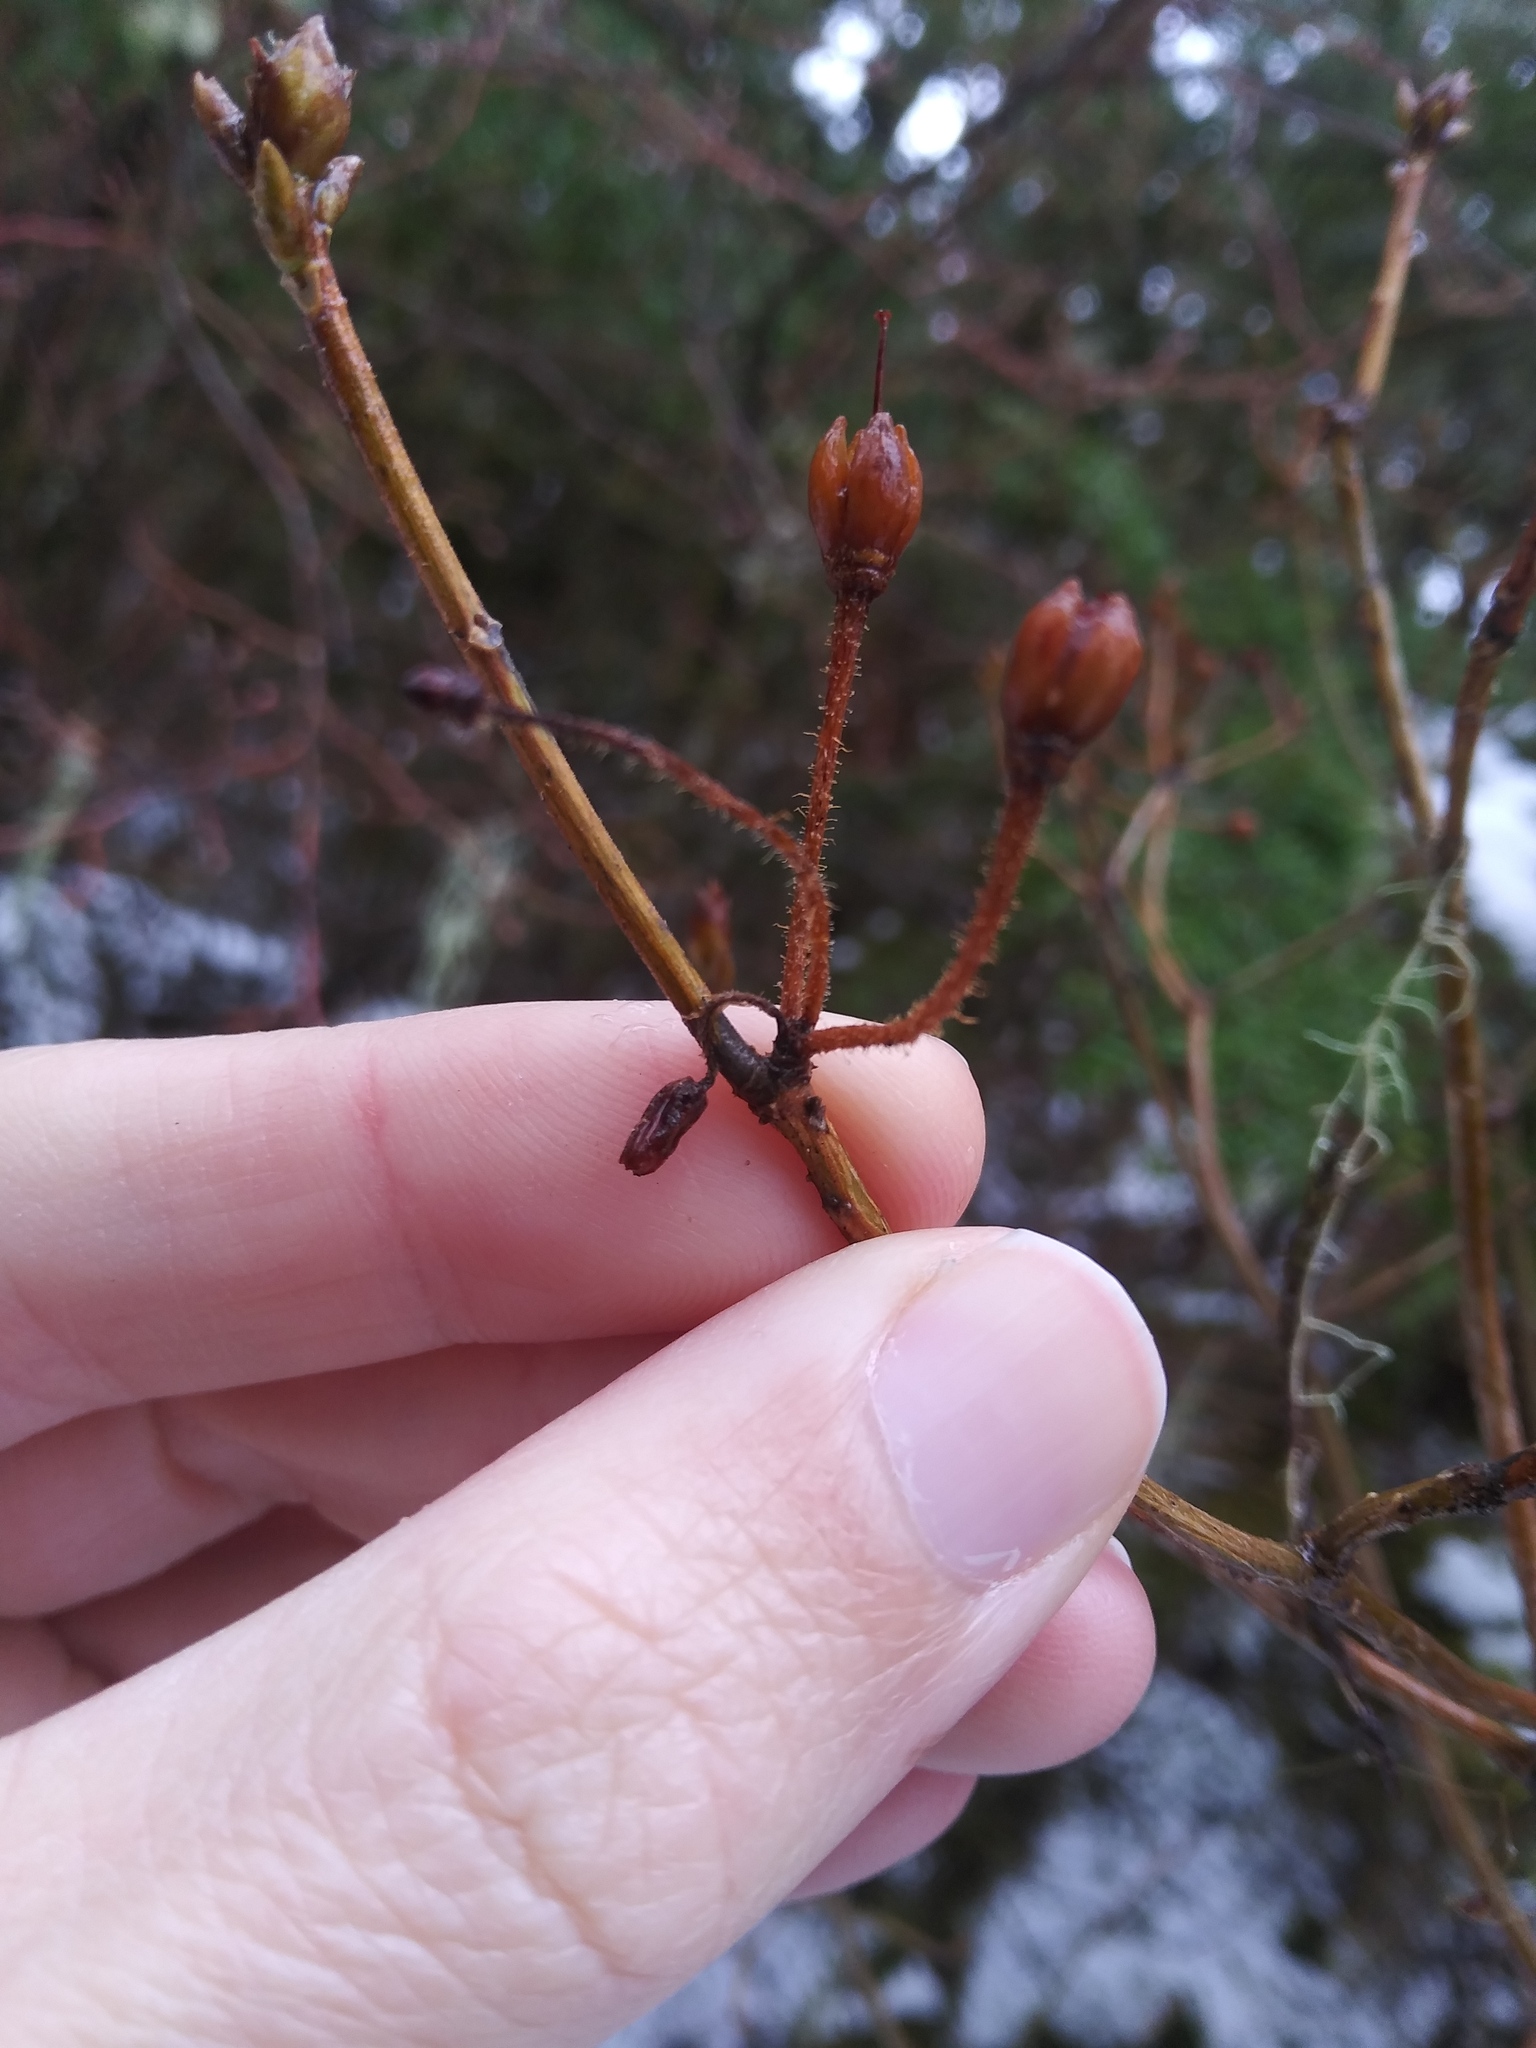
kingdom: Plantae
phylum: Tracheophyta
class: Magnoliopsida
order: Ericales
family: Ericaceae
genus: Rhododendron
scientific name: Rhododendron menziesii
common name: Pacific menziesia
